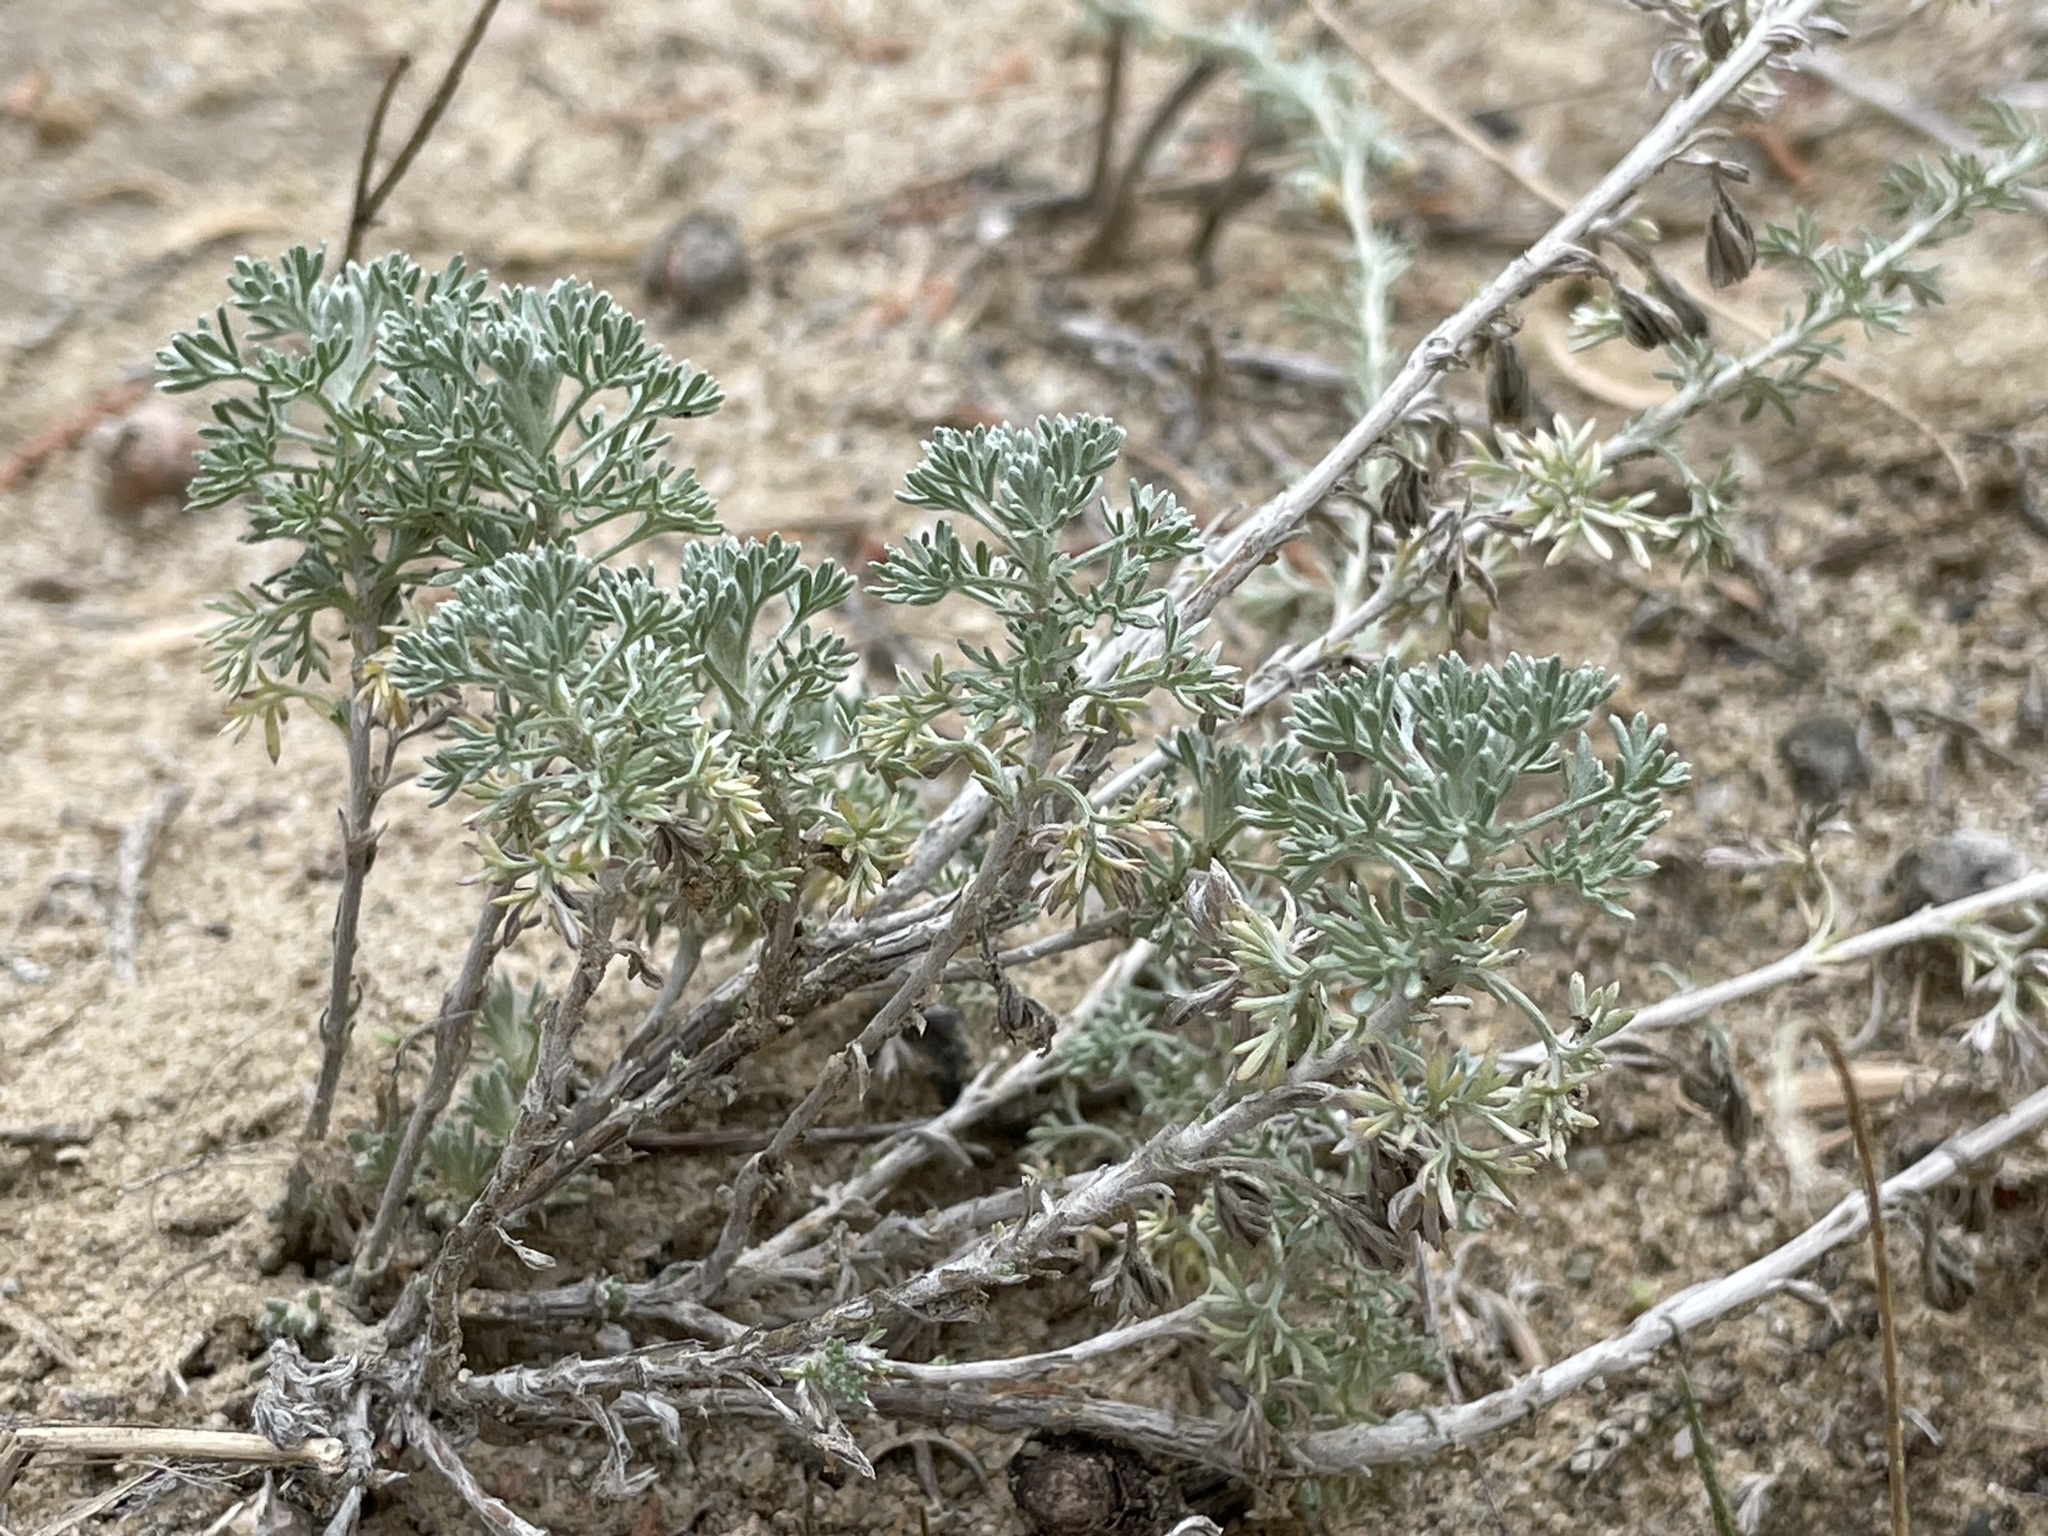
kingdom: Plantae
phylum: Tracheophyta
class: Magnoliopsida
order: Asterales
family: Asteraceae
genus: Artemisia
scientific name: Artemisia frigida
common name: Prairie sagewort
